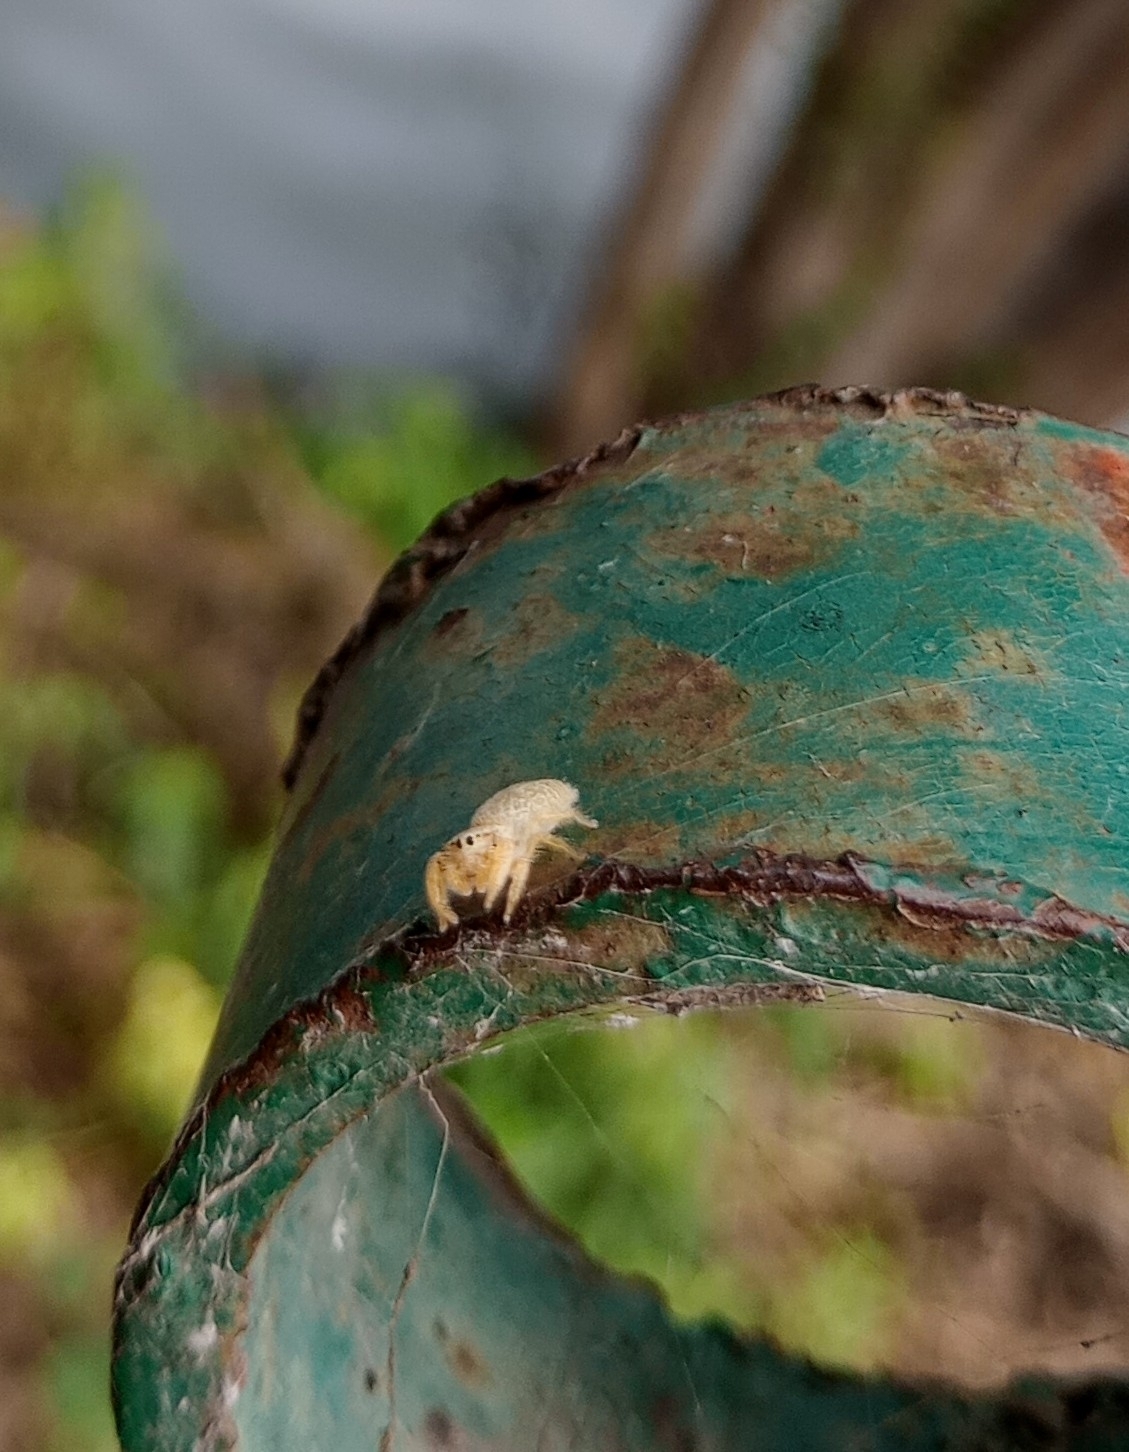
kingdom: Animalia
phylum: Arthropoda
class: Arachnida
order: Araneae
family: Salticidae
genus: Rhene
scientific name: Rhene pallida
